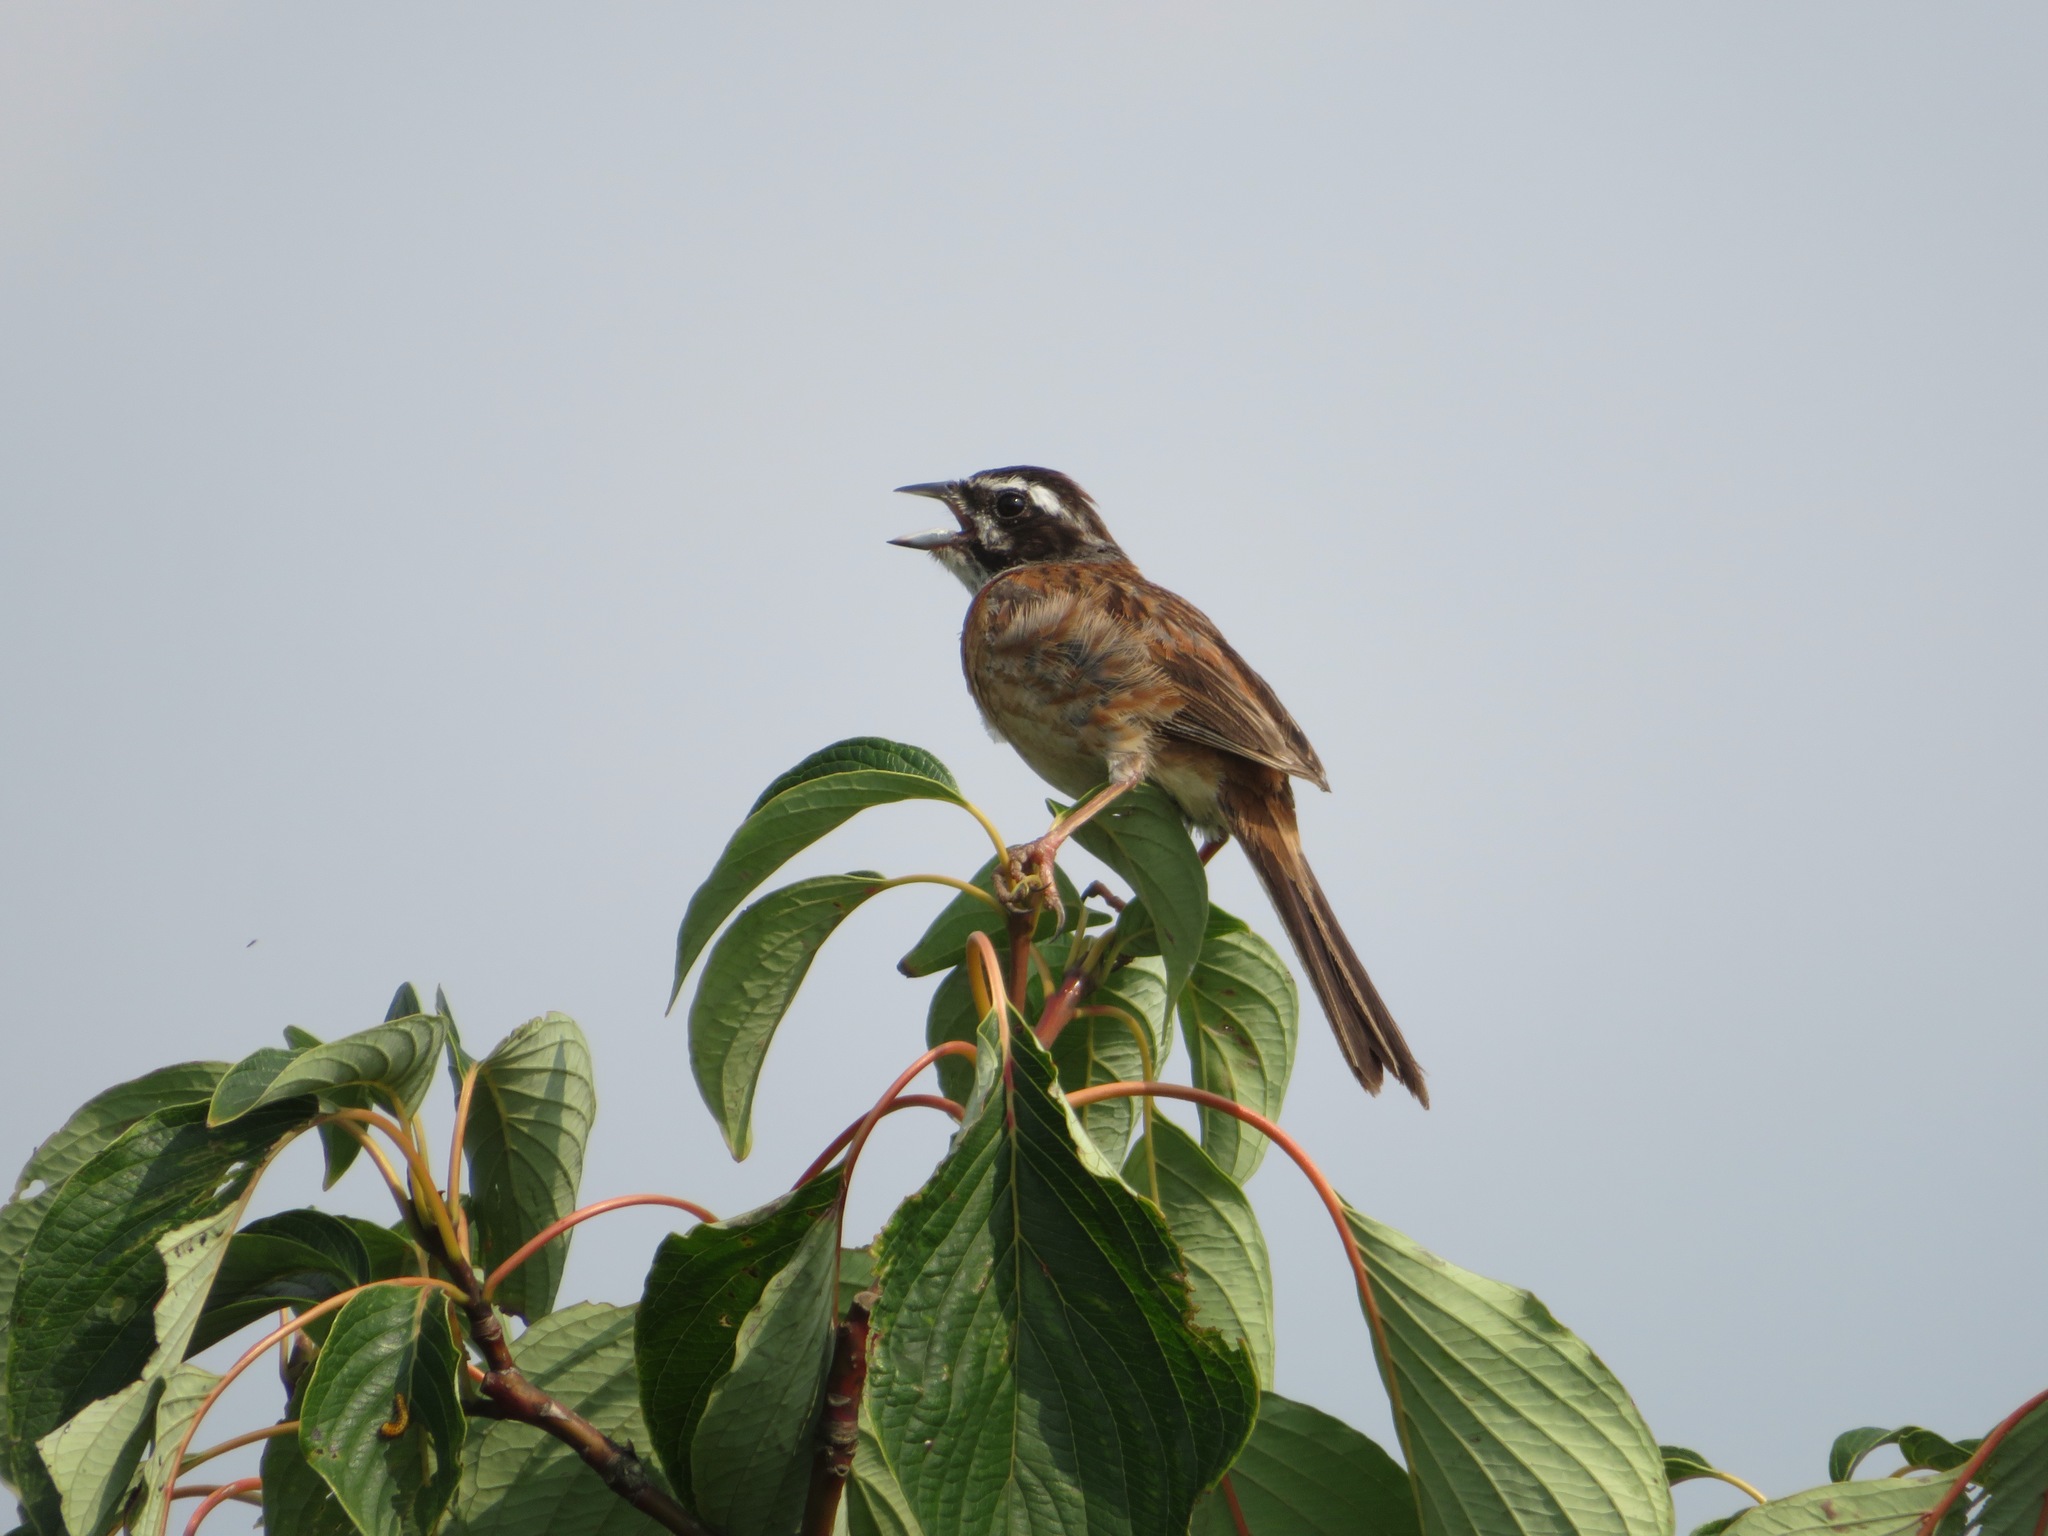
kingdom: Animalia
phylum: Chordata
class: Aves
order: Passeriformes
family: Emberizidae
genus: Emberiza
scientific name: Emberiza cioides
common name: Meadow bunting
